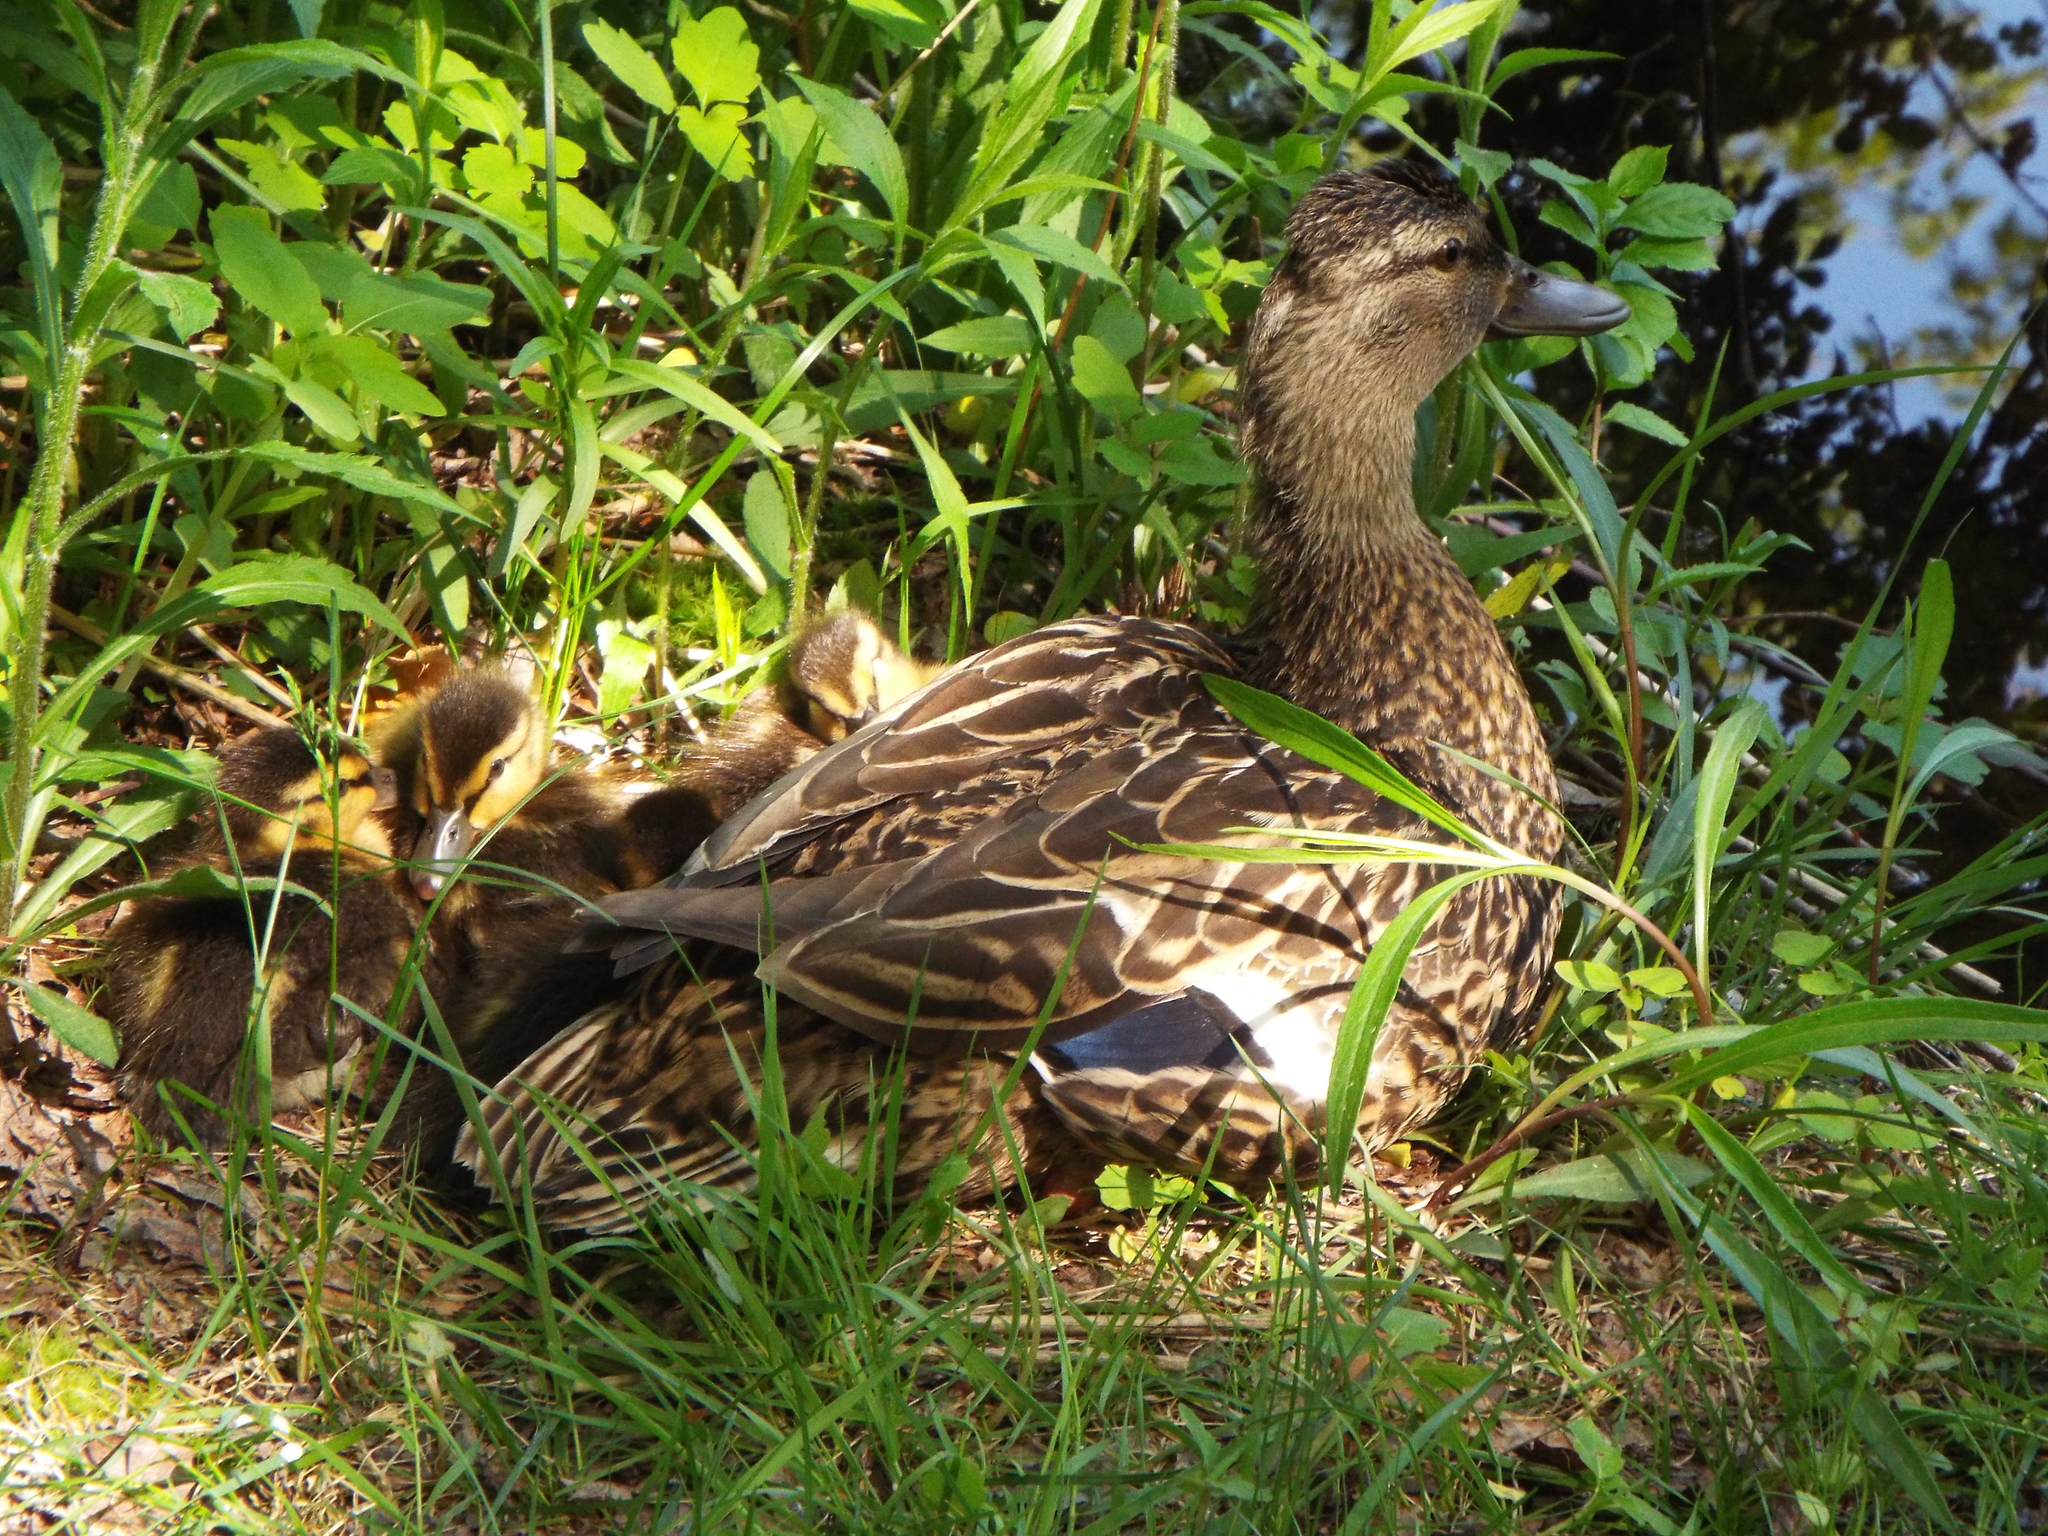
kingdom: Animalia
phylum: Chordata
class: Aves
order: Anseriformes
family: Anatidae
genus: Anas
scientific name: Anas platyrhynchos
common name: Mallard
